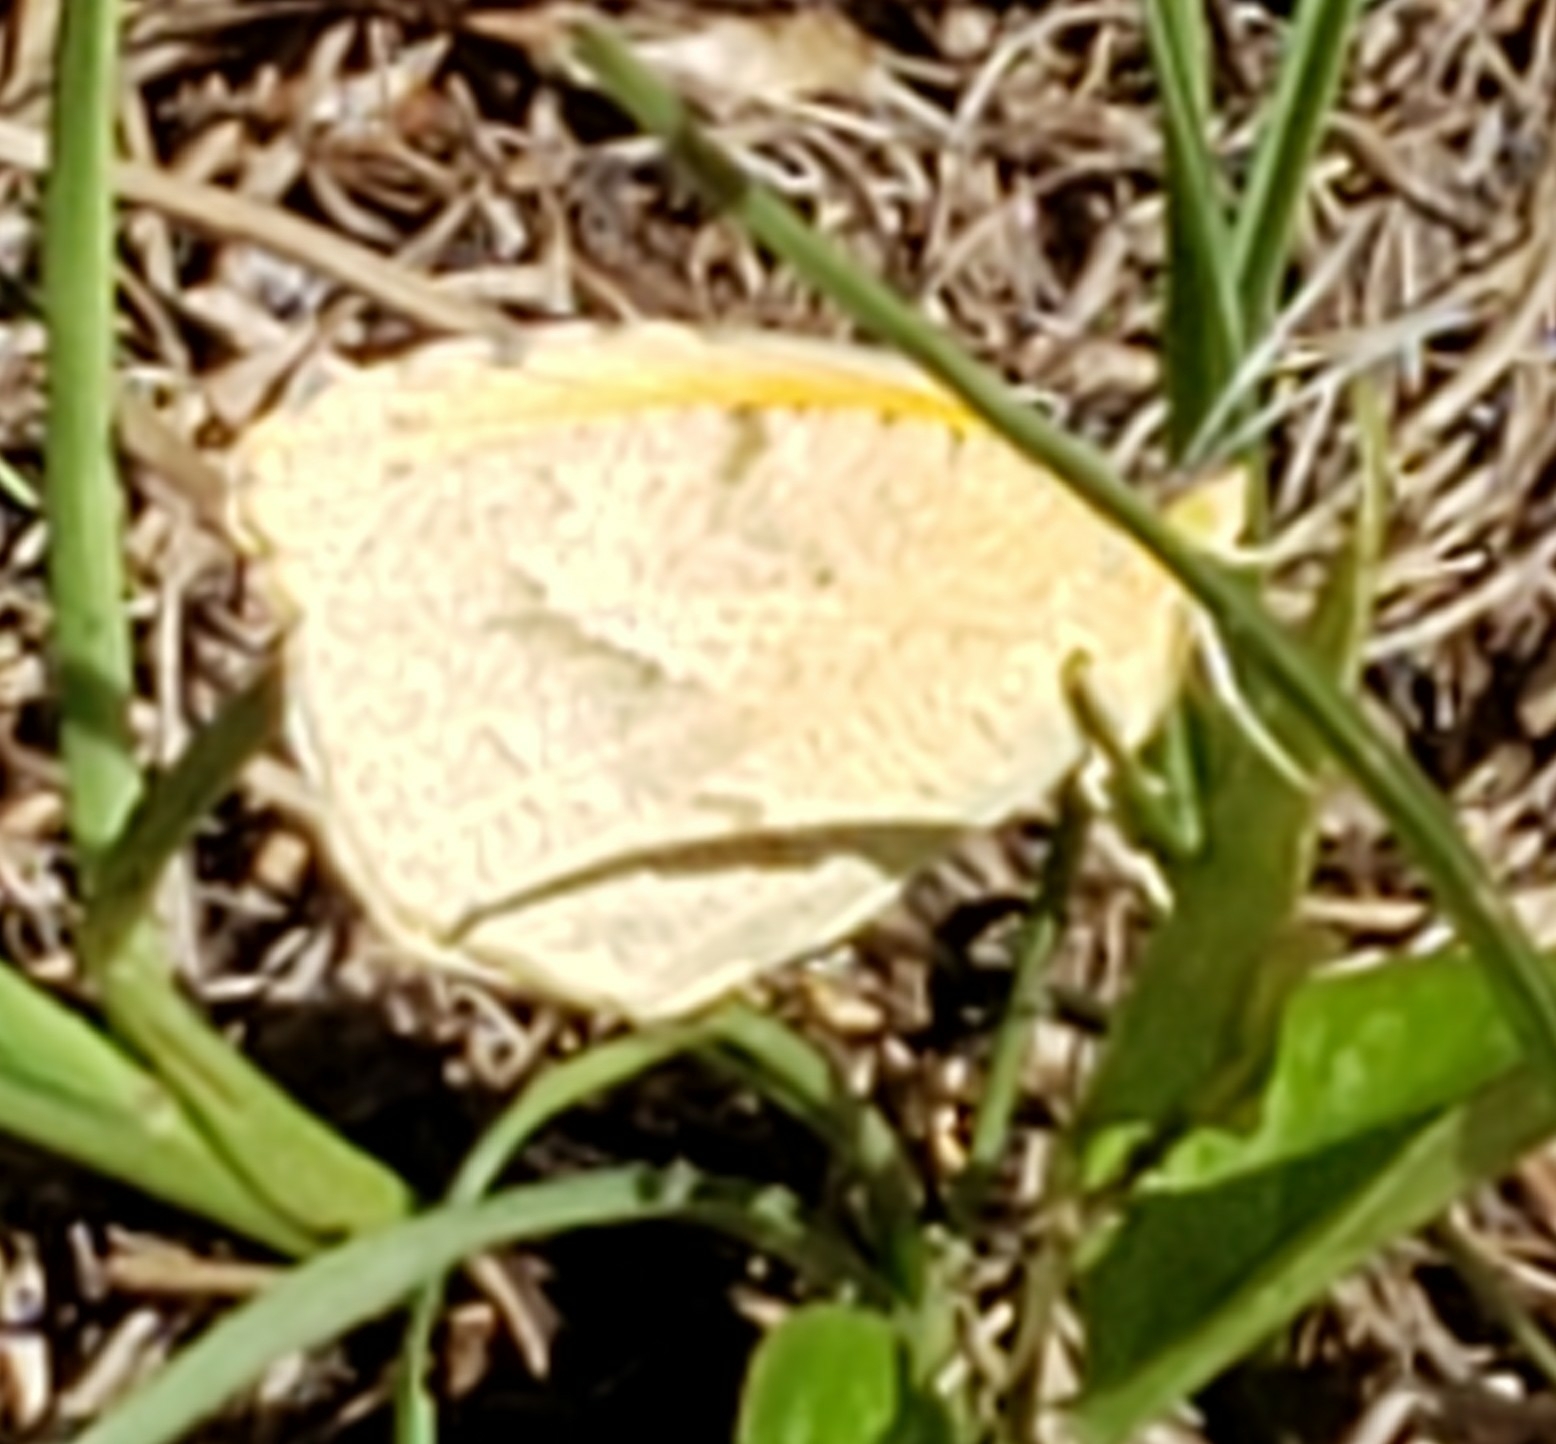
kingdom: Animalia
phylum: Arthropoda
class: Insecta
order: Lepidoptera
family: Pieridae
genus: Abaeis
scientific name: Abaeis nicippe
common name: Sleepy orange
